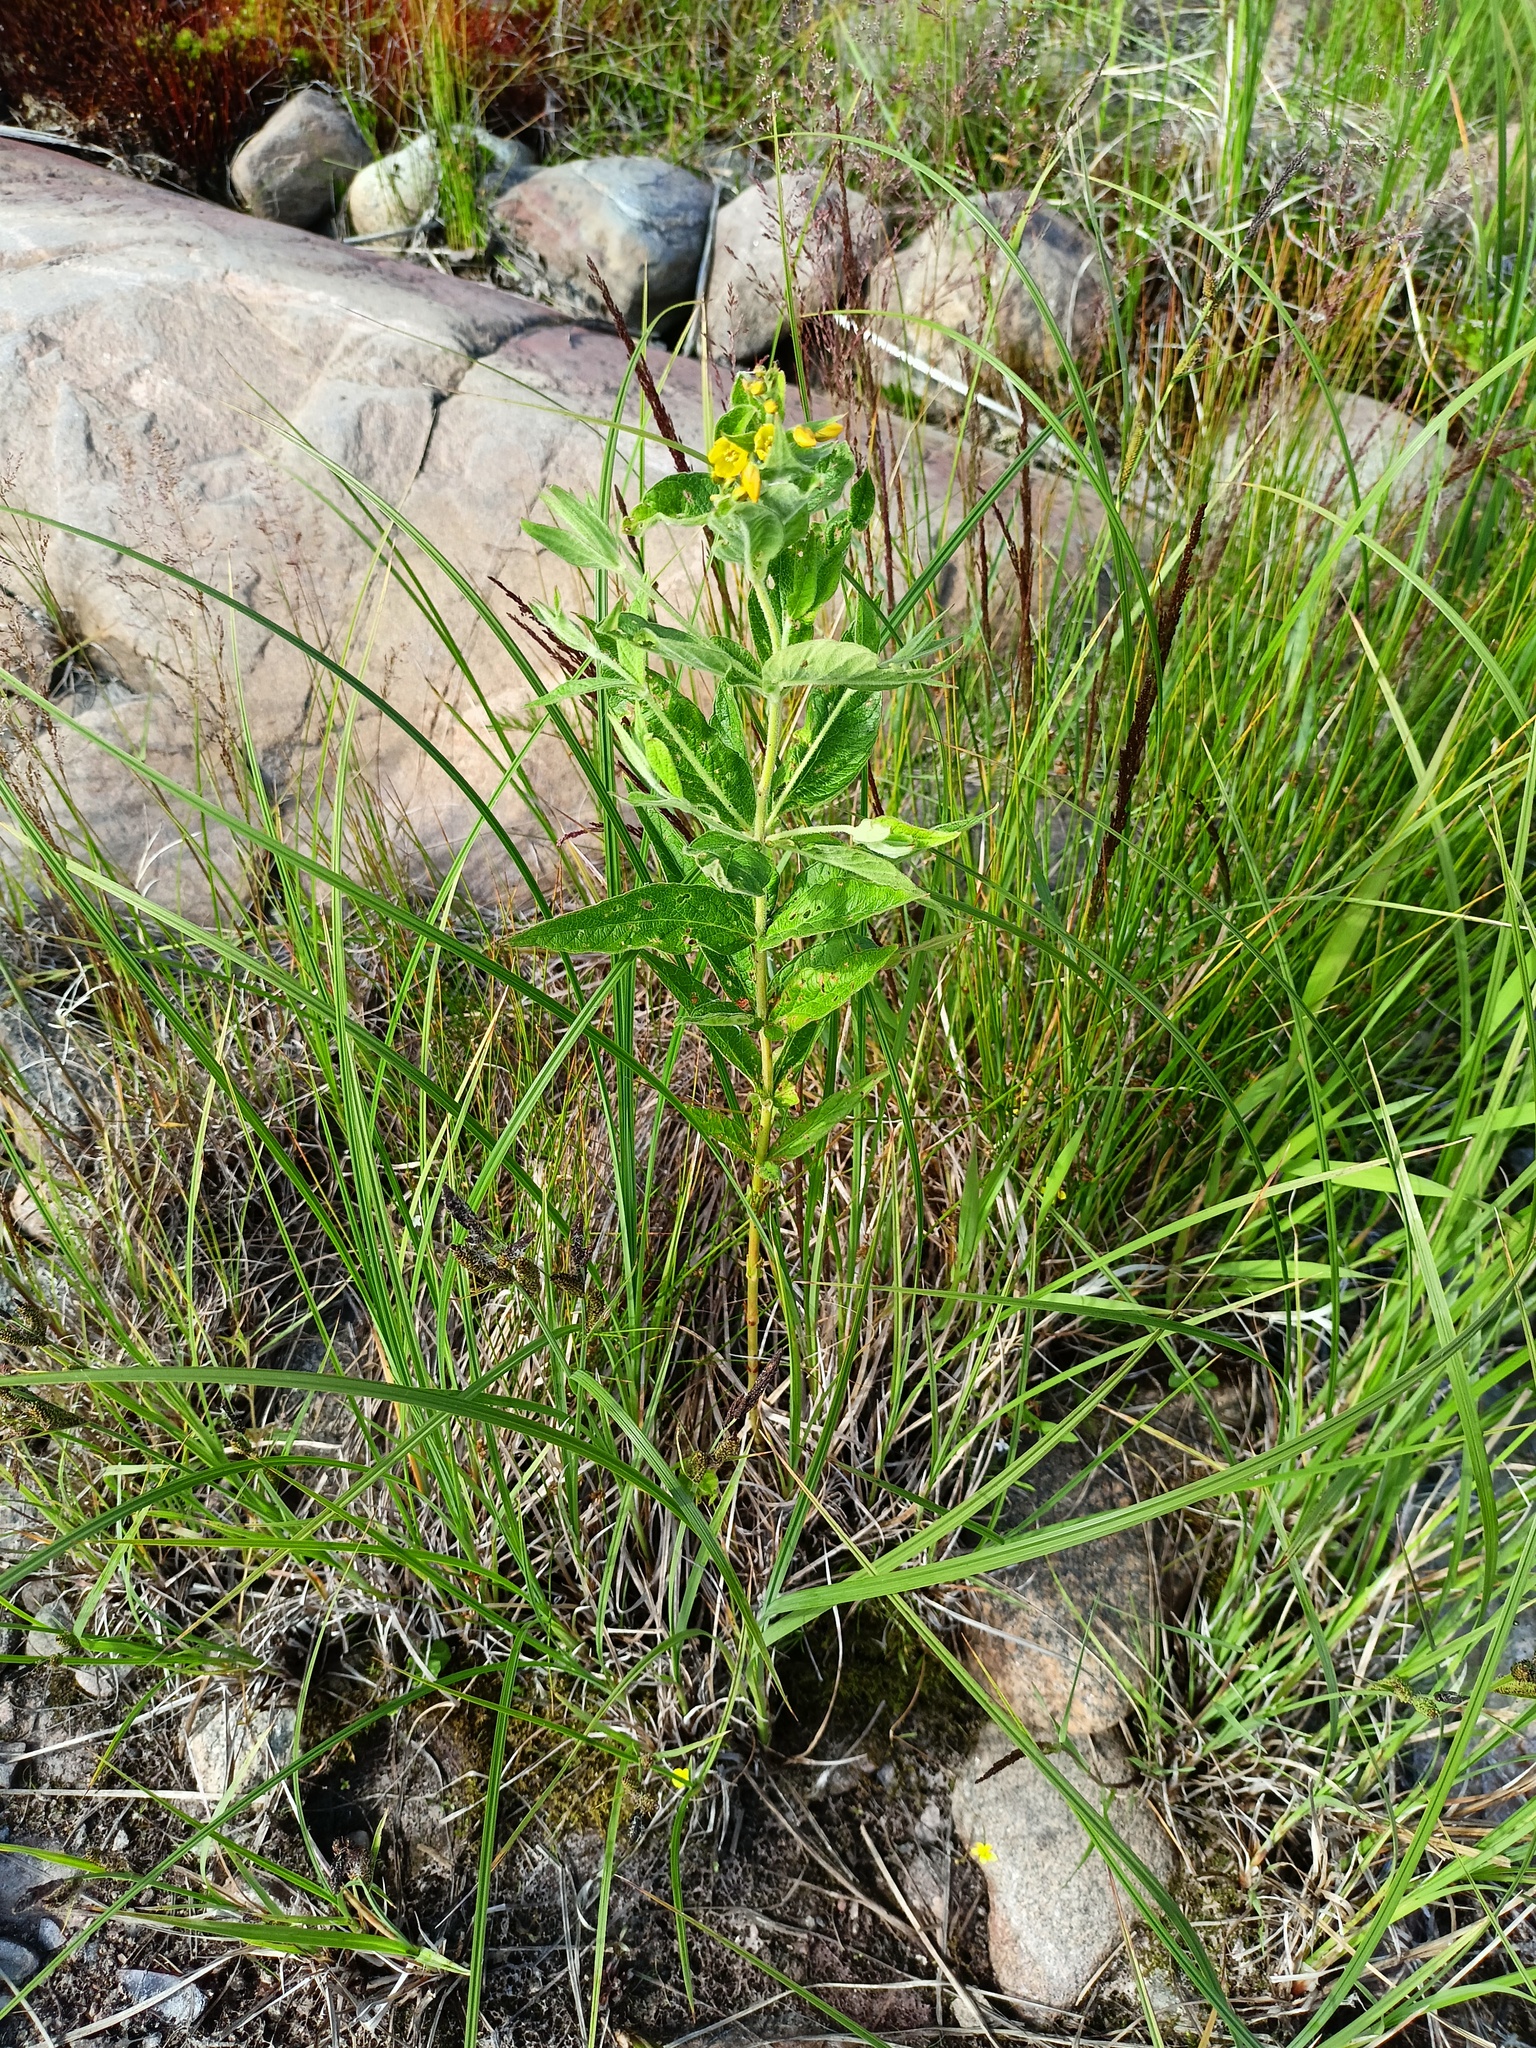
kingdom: Plantae
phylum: Tracheophyta
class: Magnoliopsida
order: Ericales
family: Primulaceae
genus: Lysimachia
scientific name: Lysimachia vulgaris
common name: Yellow loosestrife
